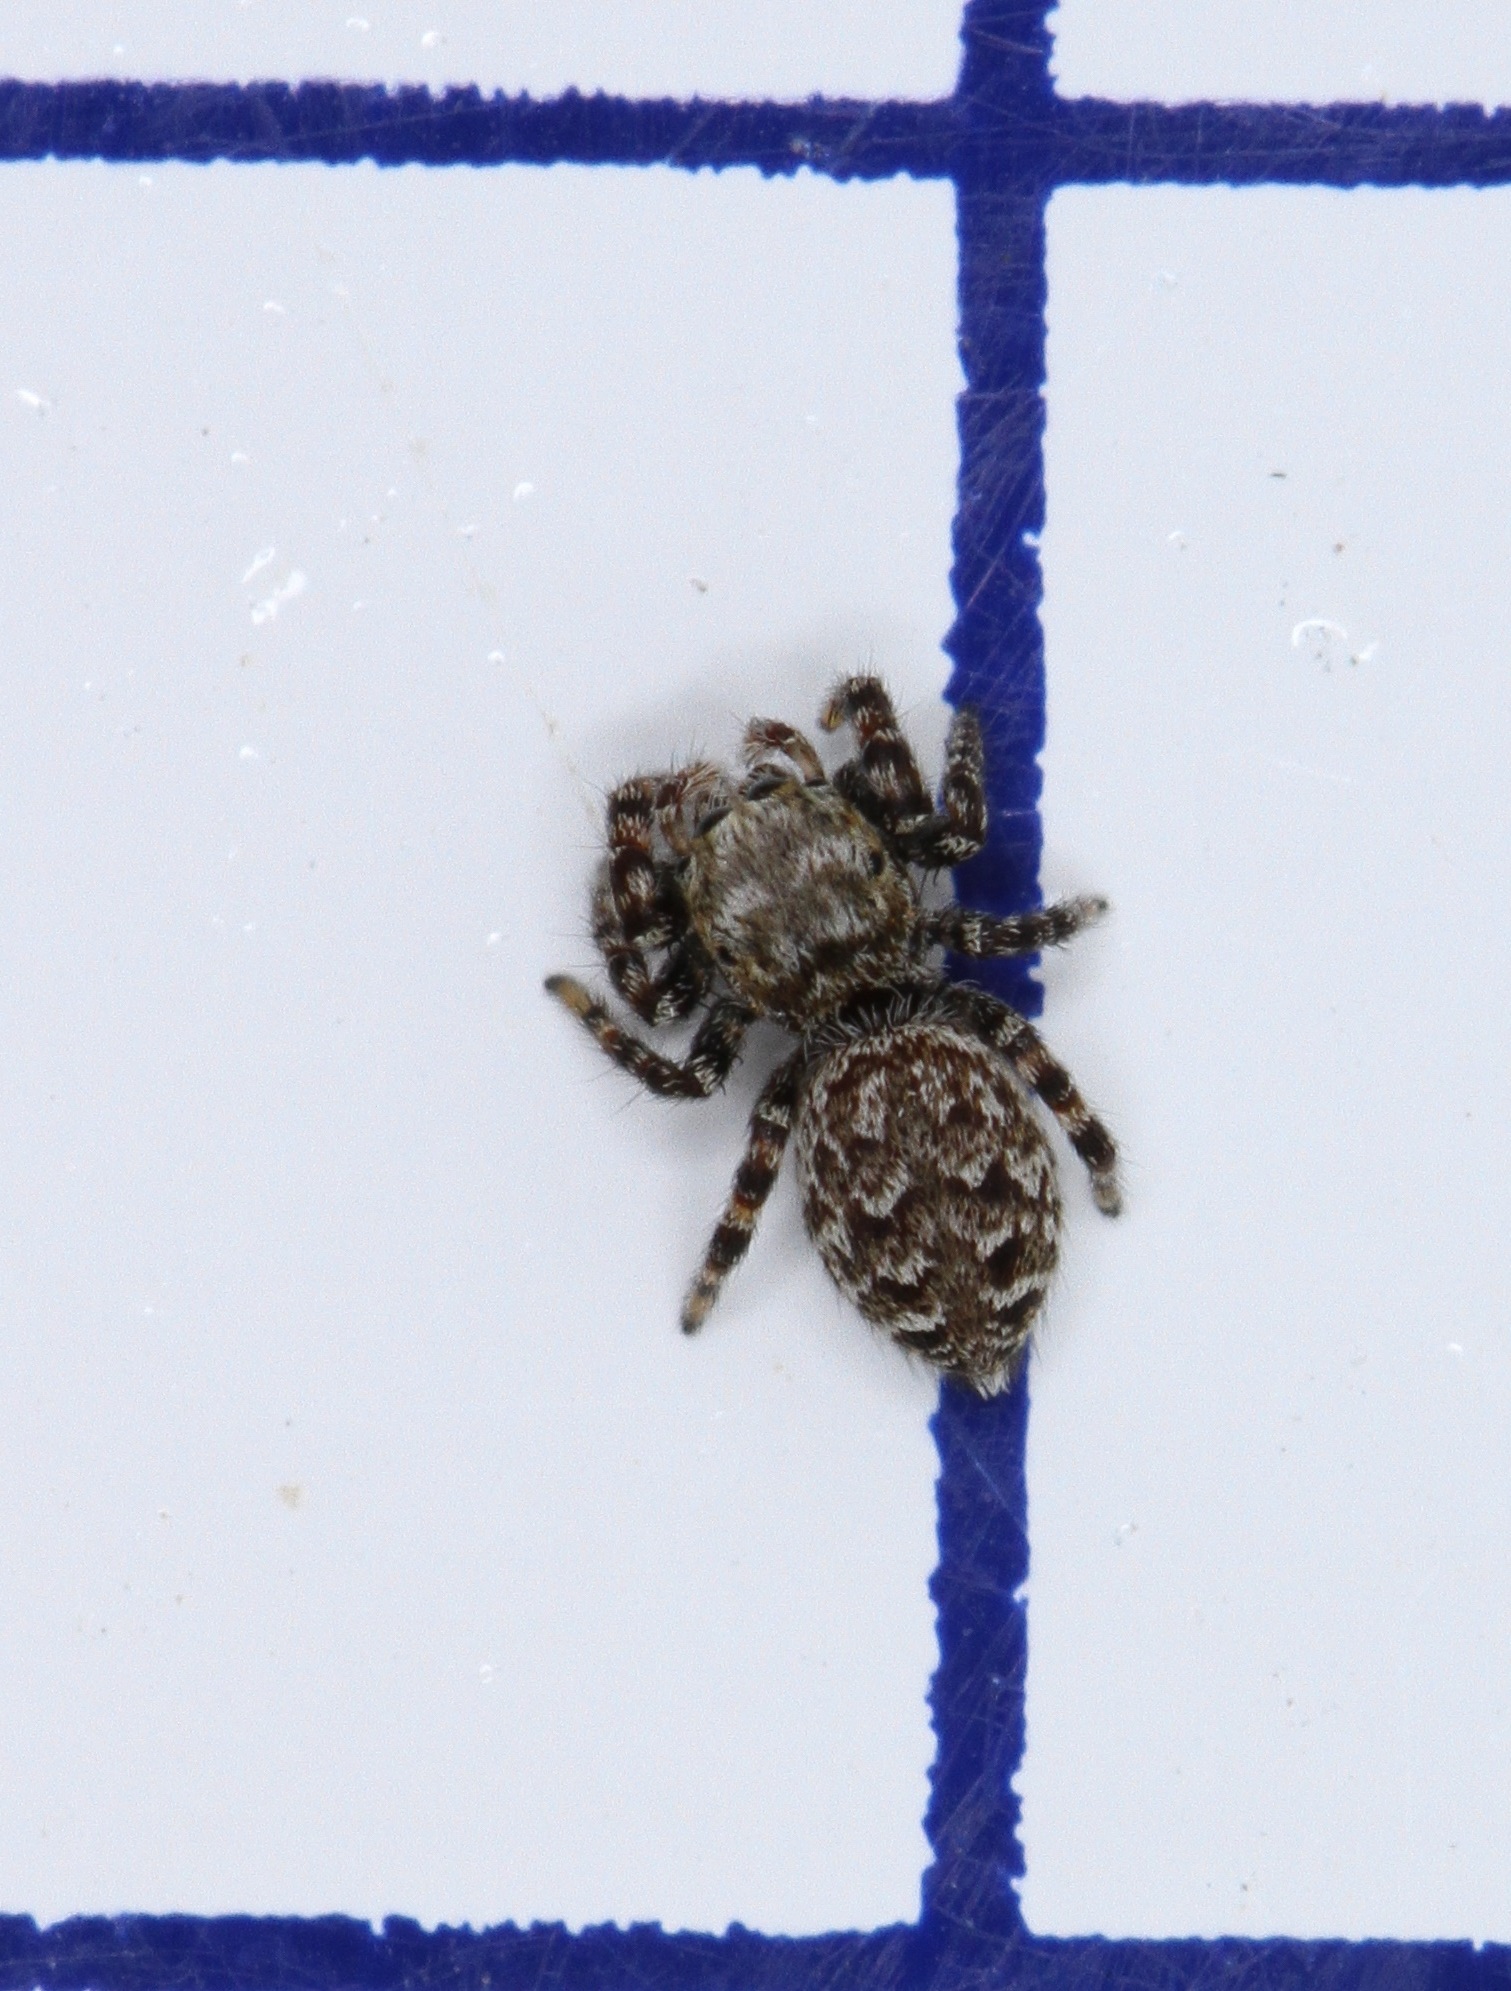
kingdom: Animalia
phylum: Arthropoda
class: Arachnida
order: Araneae
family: Salticidae
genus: Pelegrina
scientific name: Pelegrina galathea
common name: Jumping spiders
